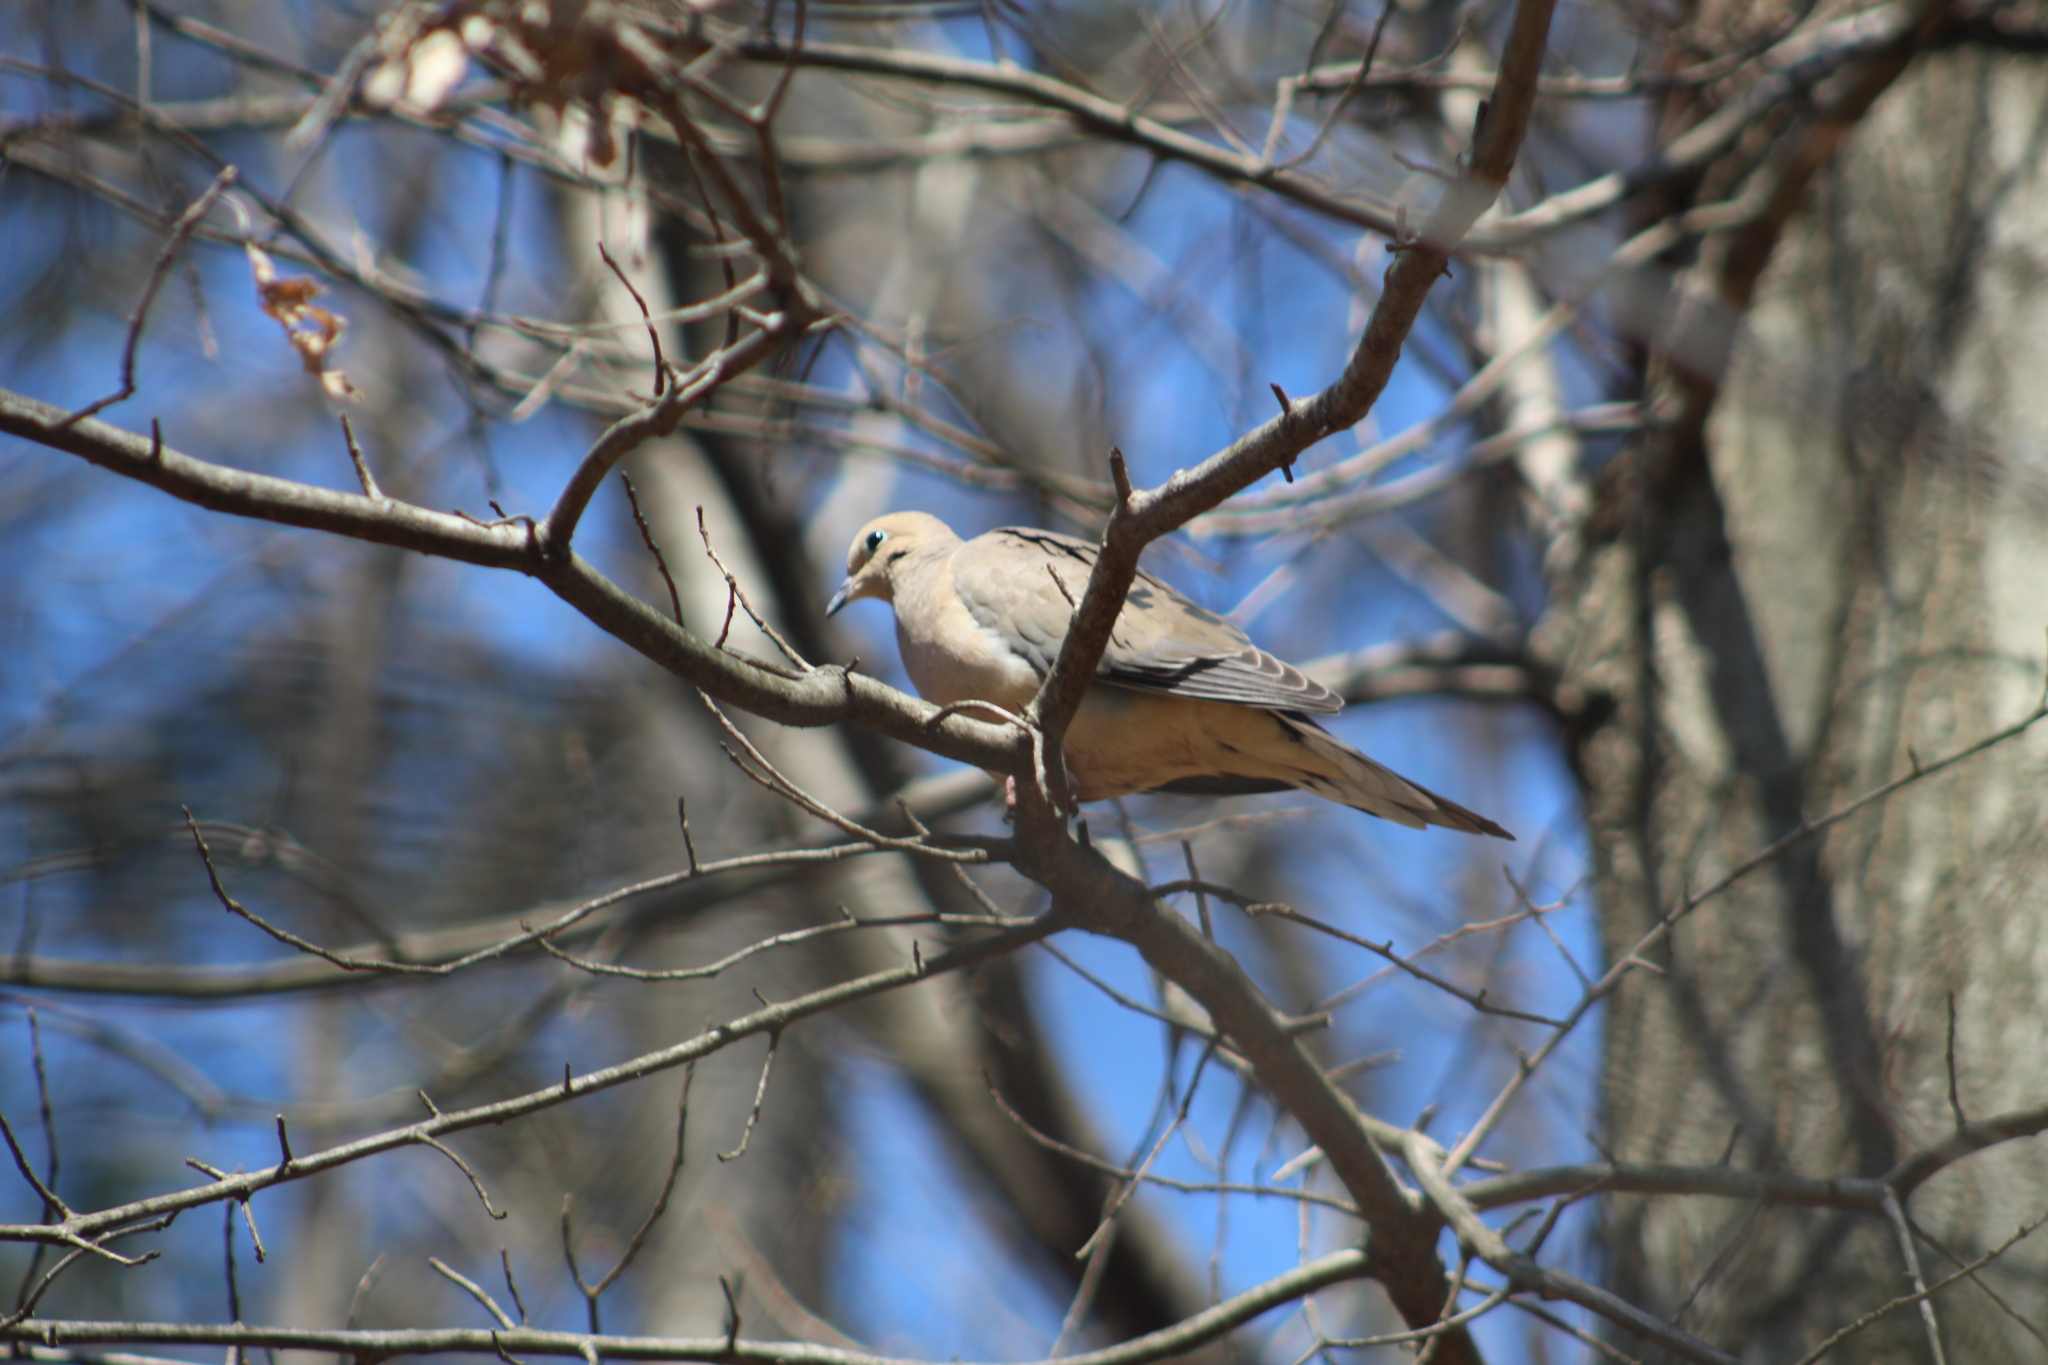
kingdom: Animalia
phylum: Chordata
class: Aves
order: Columbiformes
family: Columbidae
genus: Zenaida
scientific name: Zenaida macroura
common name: Mourning dove
